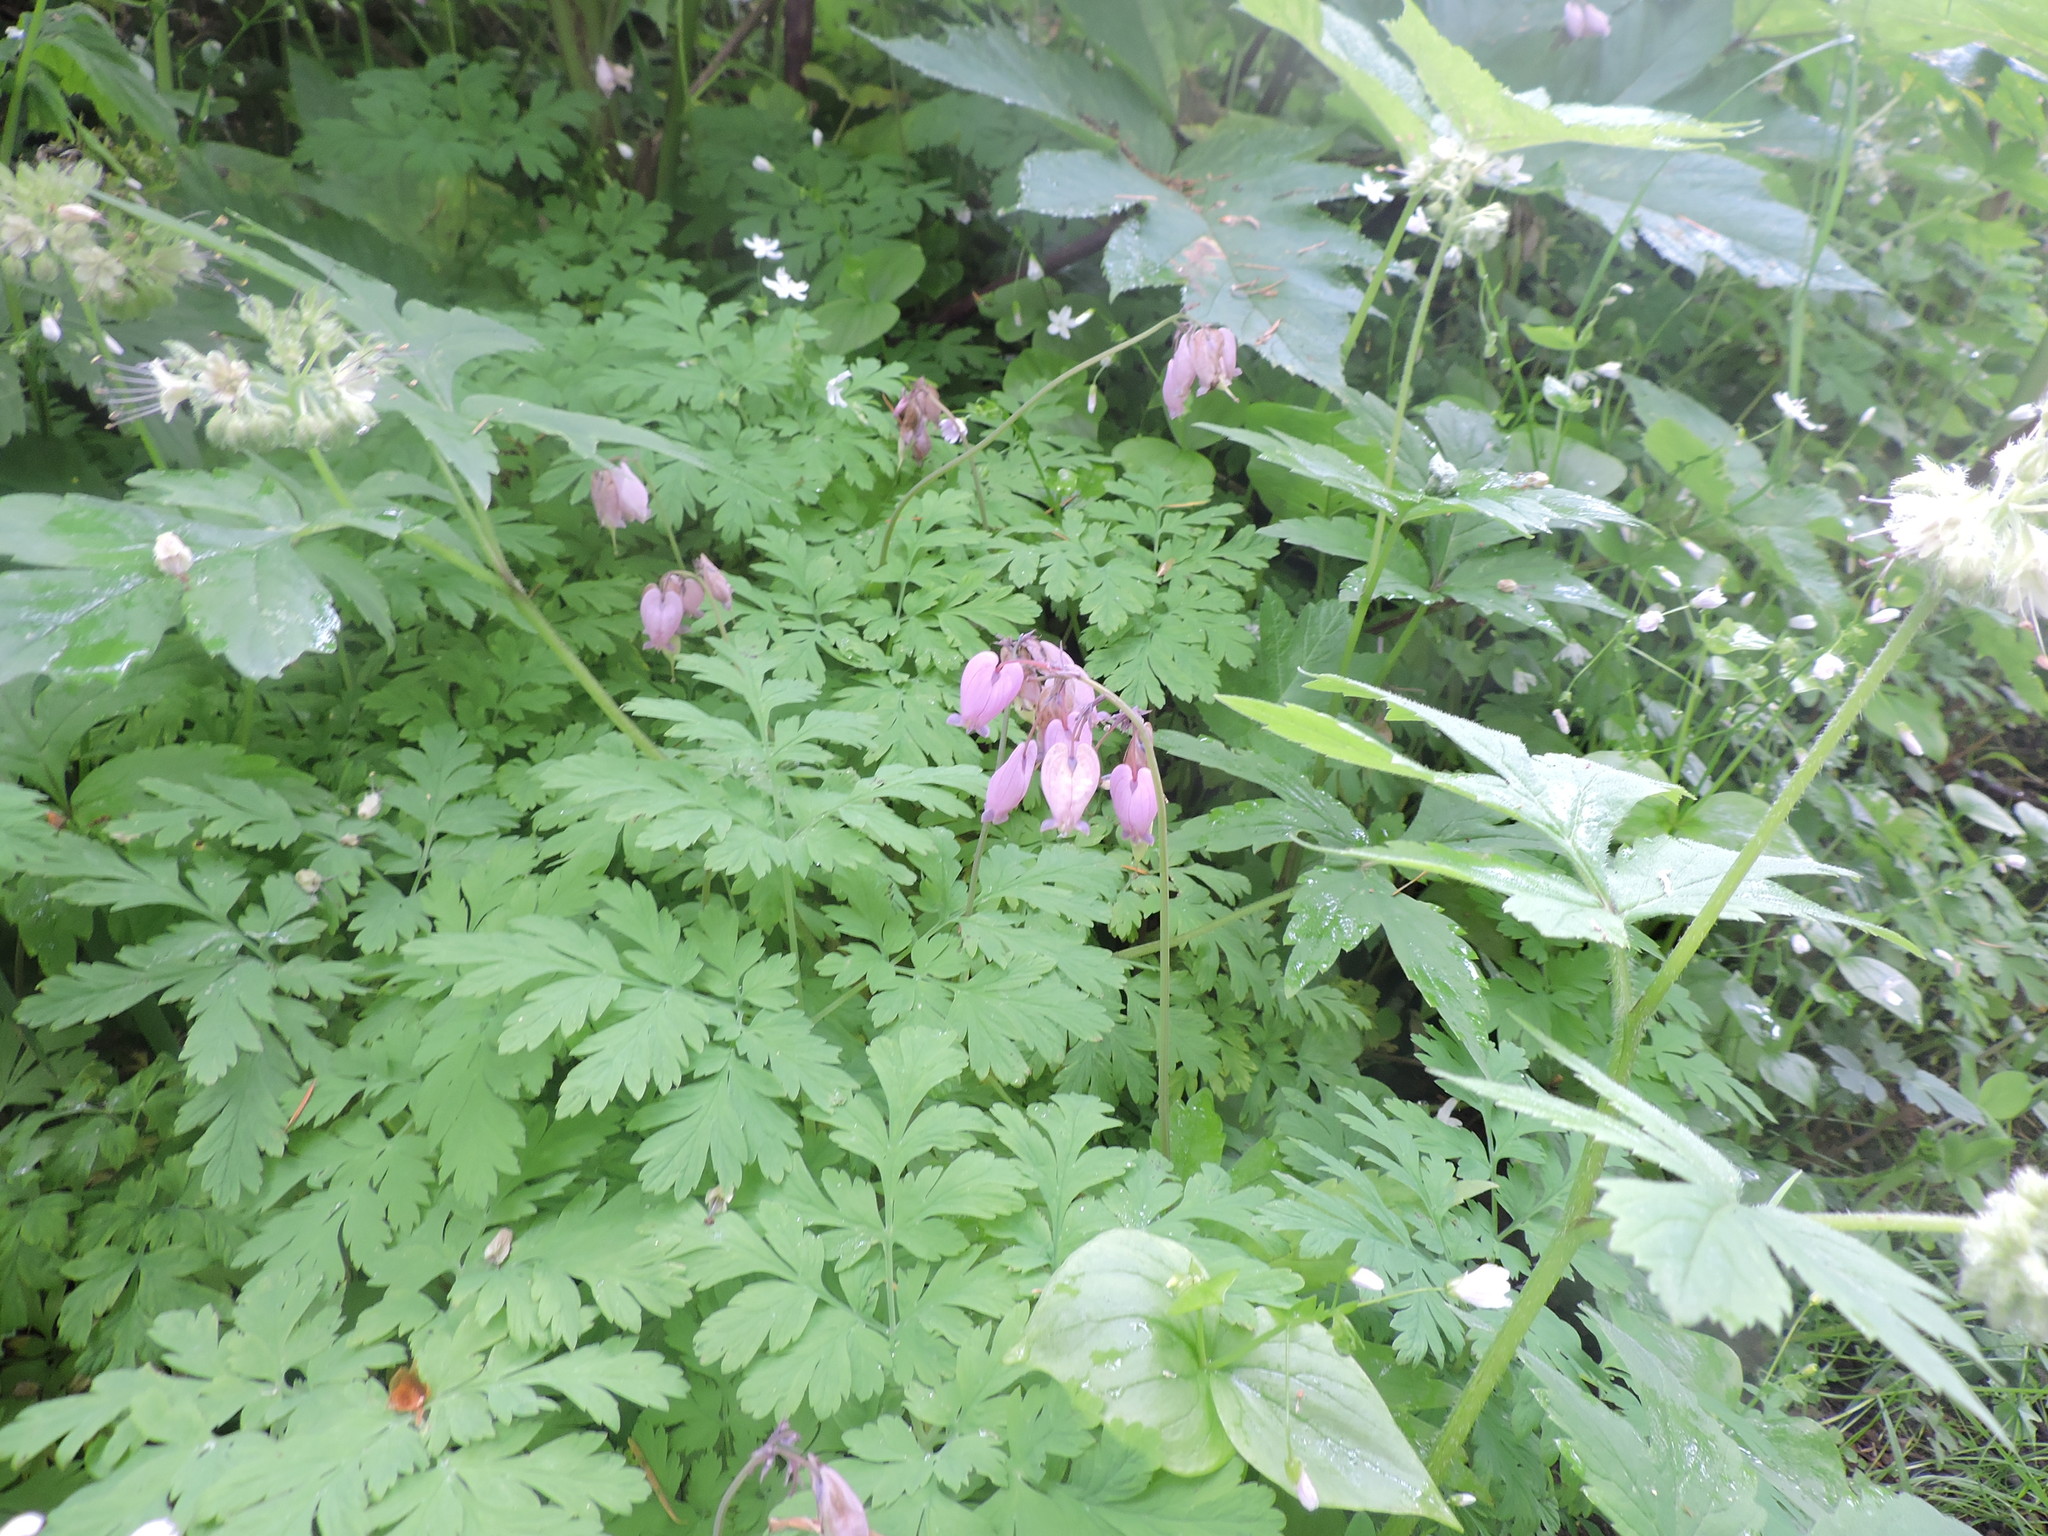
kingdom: Plantae
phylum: Tracheophyta
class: Magnoliopsida
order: Ranunculales
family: Papaveraceae
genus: Dicentra
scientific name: Dicentra formosa
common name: Bleeding-heart
